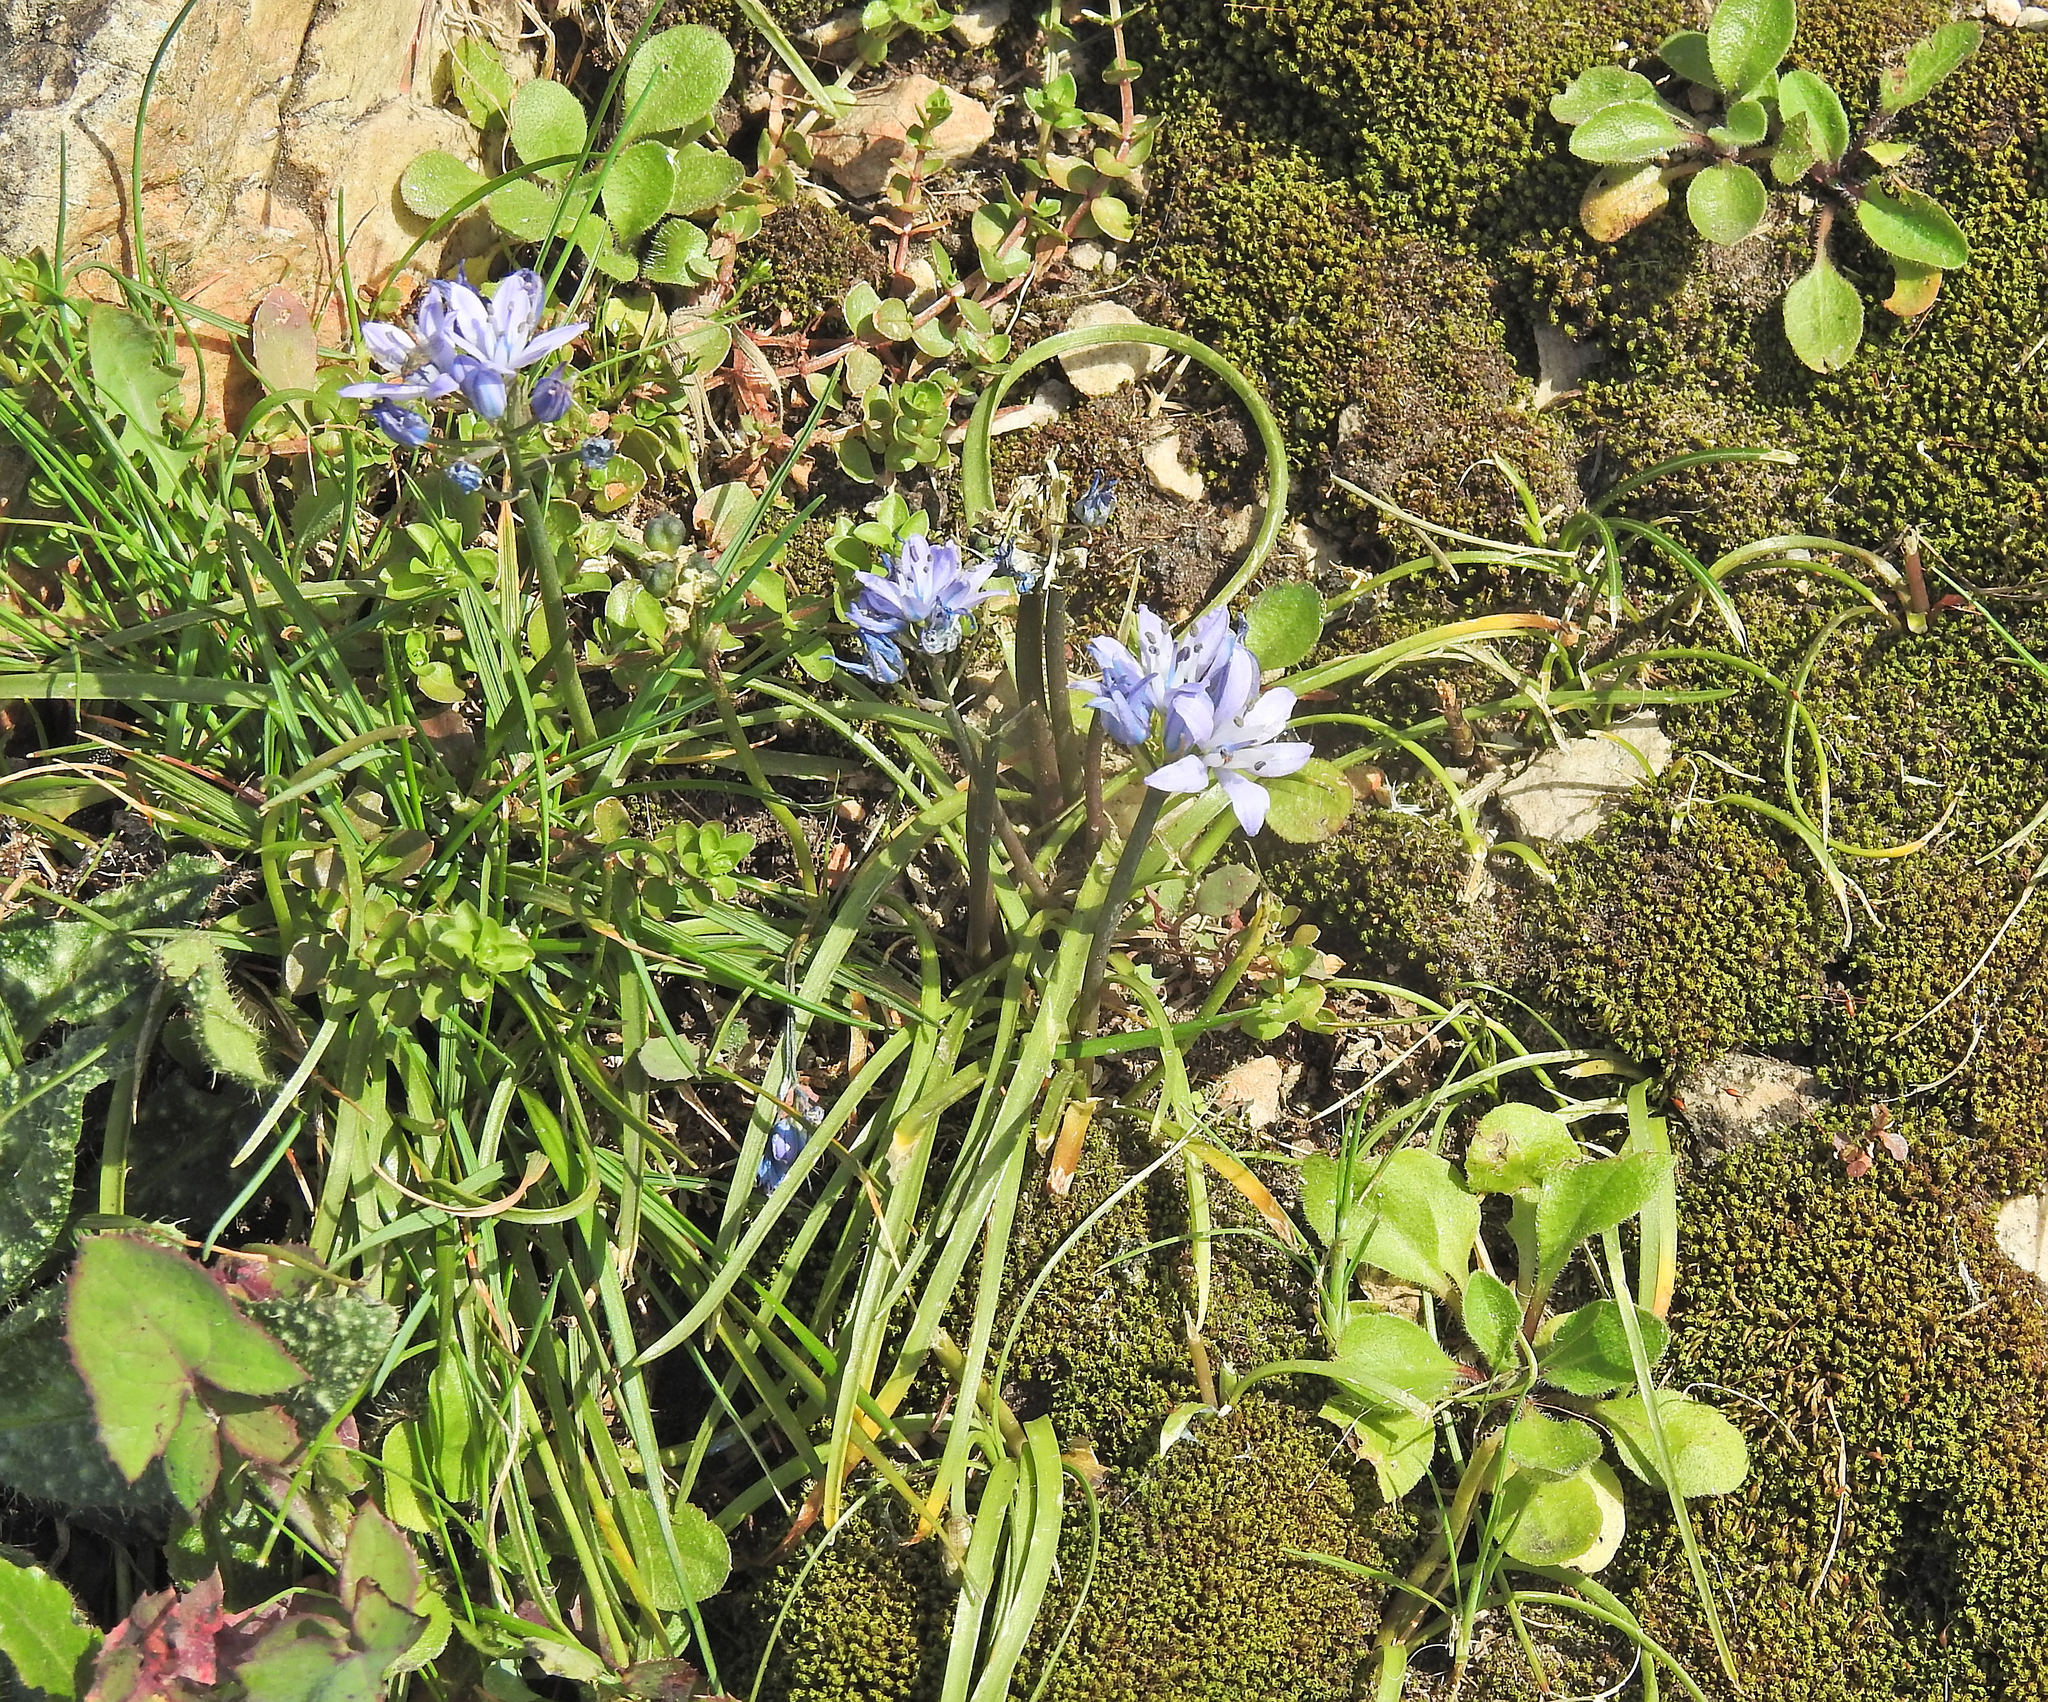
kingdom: Plantae
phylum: Tracheophyta
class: Liliopsida
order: Asparagales
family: Asparagaceae
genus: Scilla
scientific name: Scilla verna
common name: Spring squill
